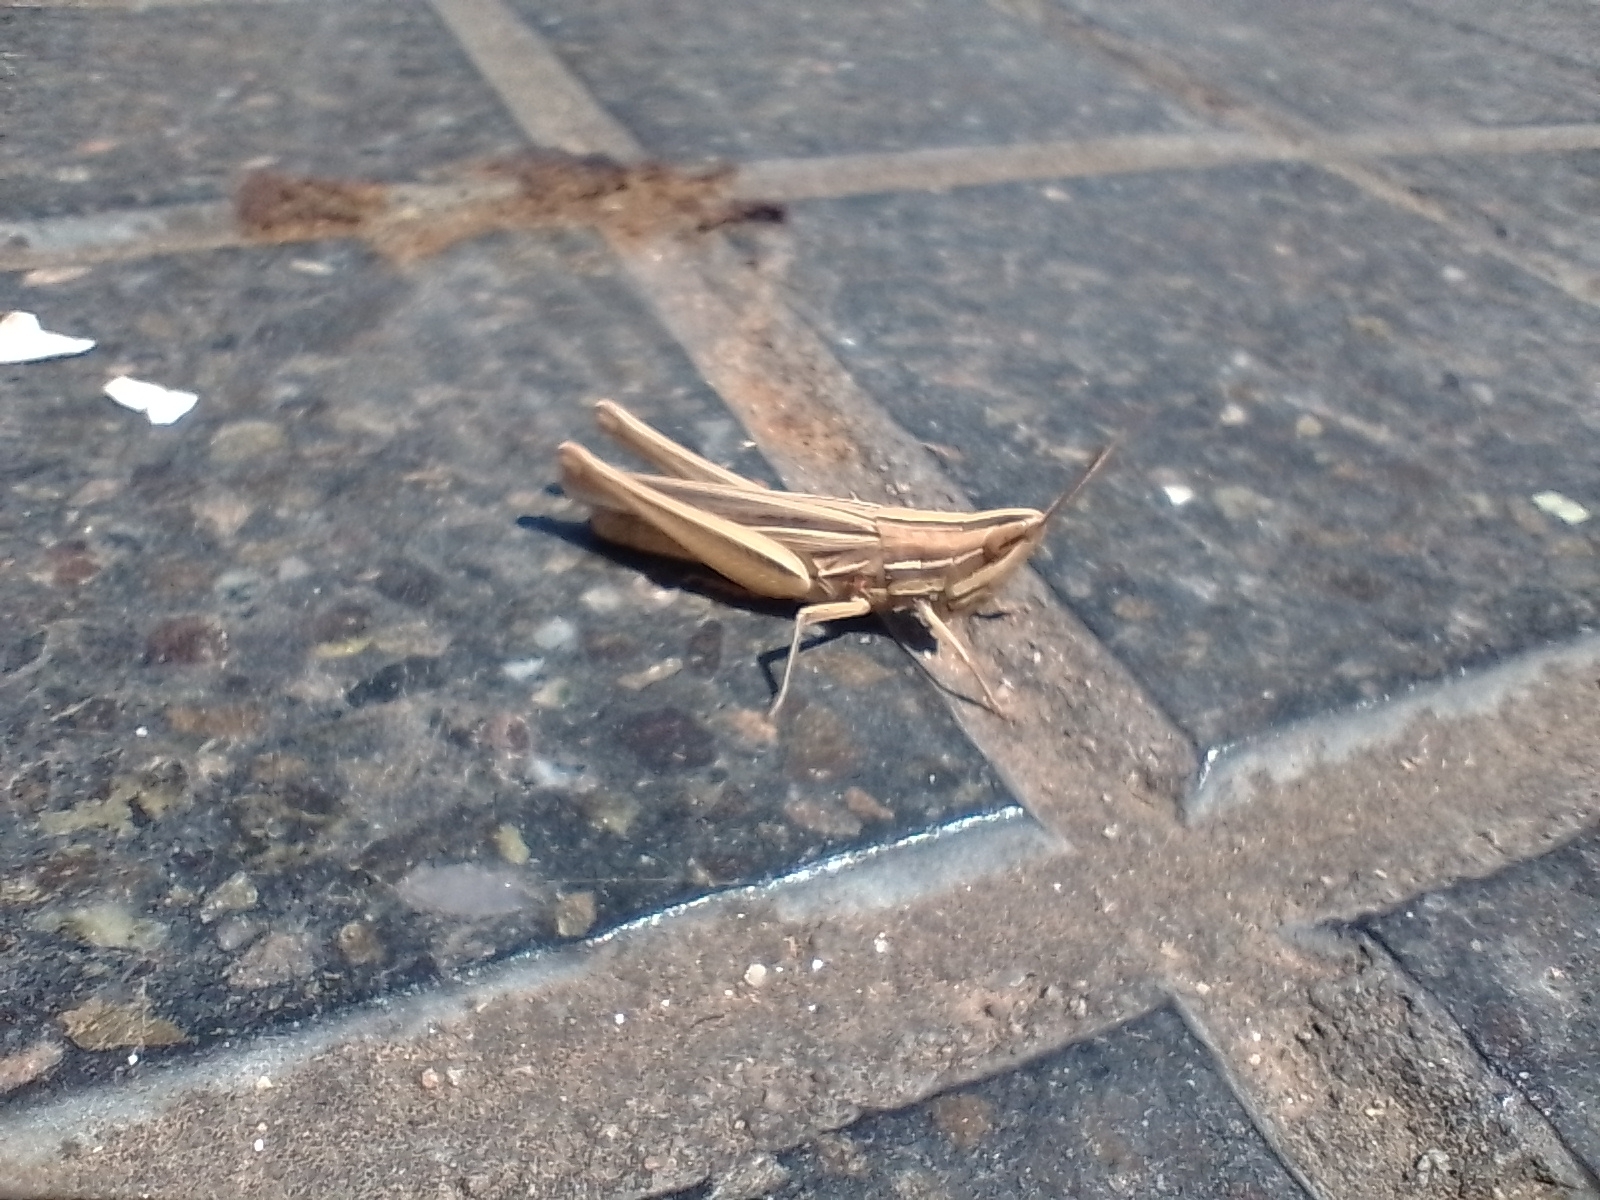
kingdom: Animalia
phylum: Arthropoda
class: Insecta
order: Orthoptera
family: Acrididae
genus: Sinipta
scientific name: Sinipta dalmani
